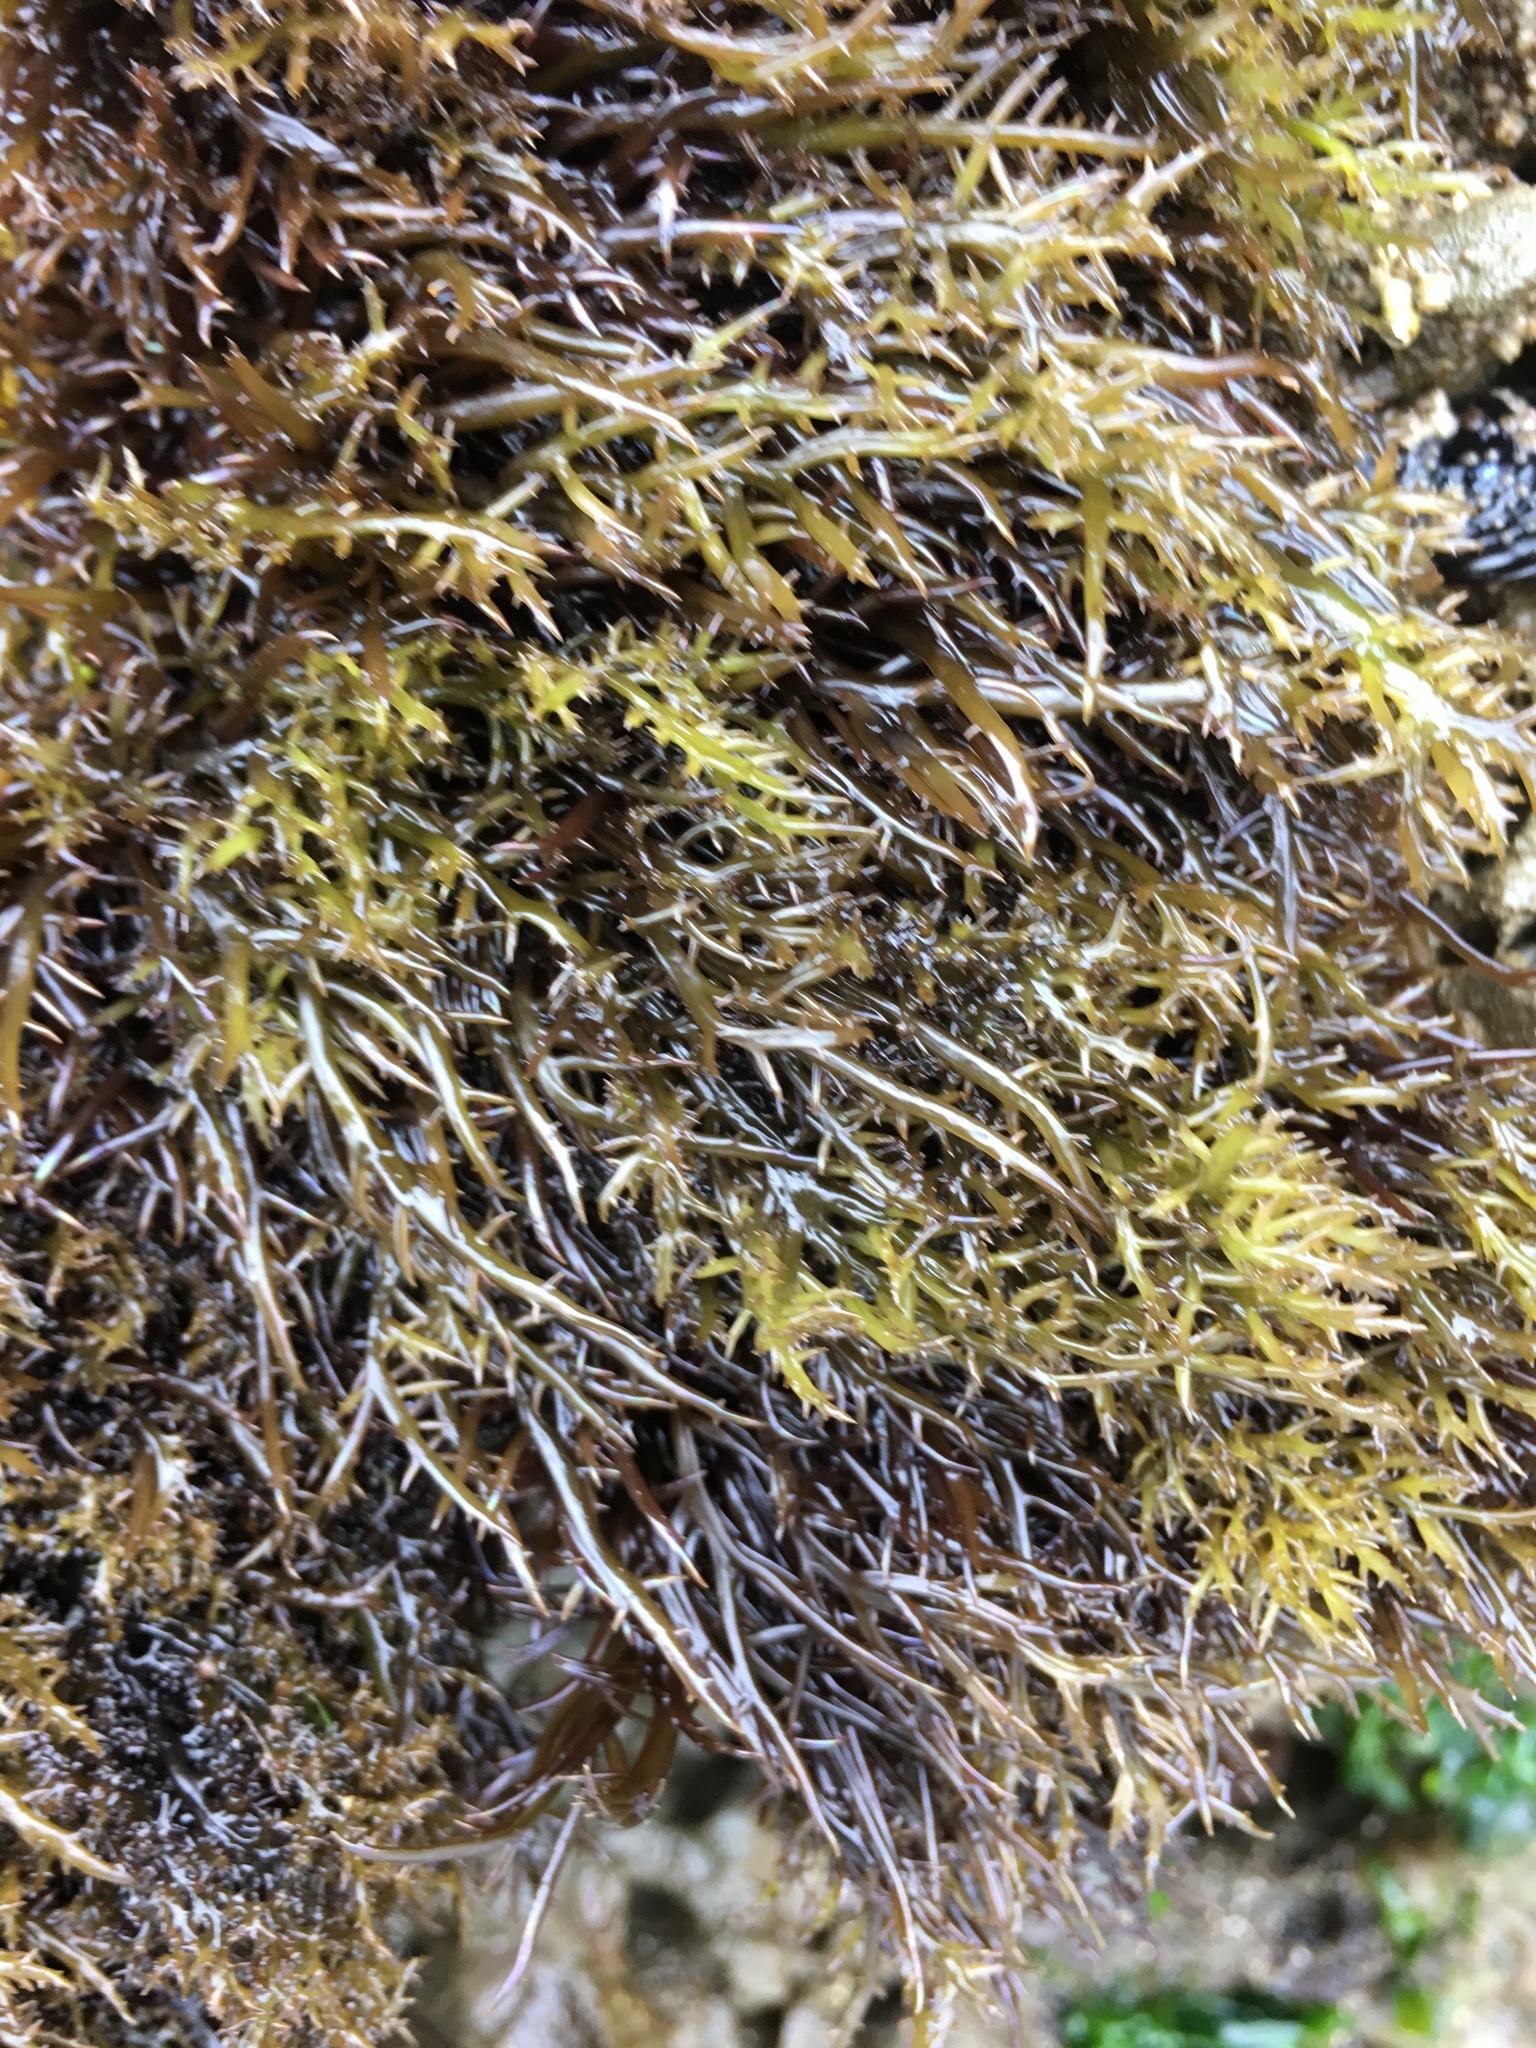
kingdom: Plantae
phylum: Rhodophyta
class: Florideophyceae
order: Gigartinales
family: Gigartinaceae
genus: Chondracanthus
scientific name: Chondracanthus canaliculatus
